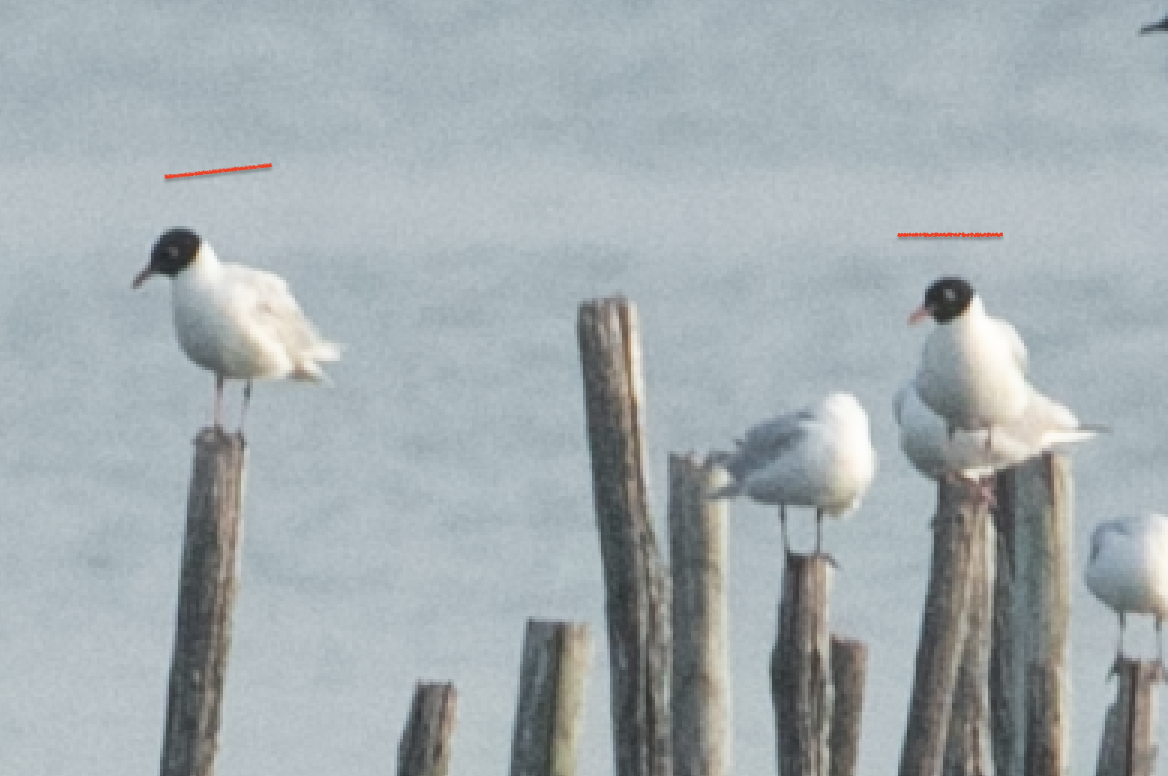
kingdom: Animalia
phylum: Chordata
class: Aves
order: Charadriiformes
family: Laridae
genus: Ichthyaetus
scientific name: Ichthyaetus melanocephalus
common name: Mediterranean gull
